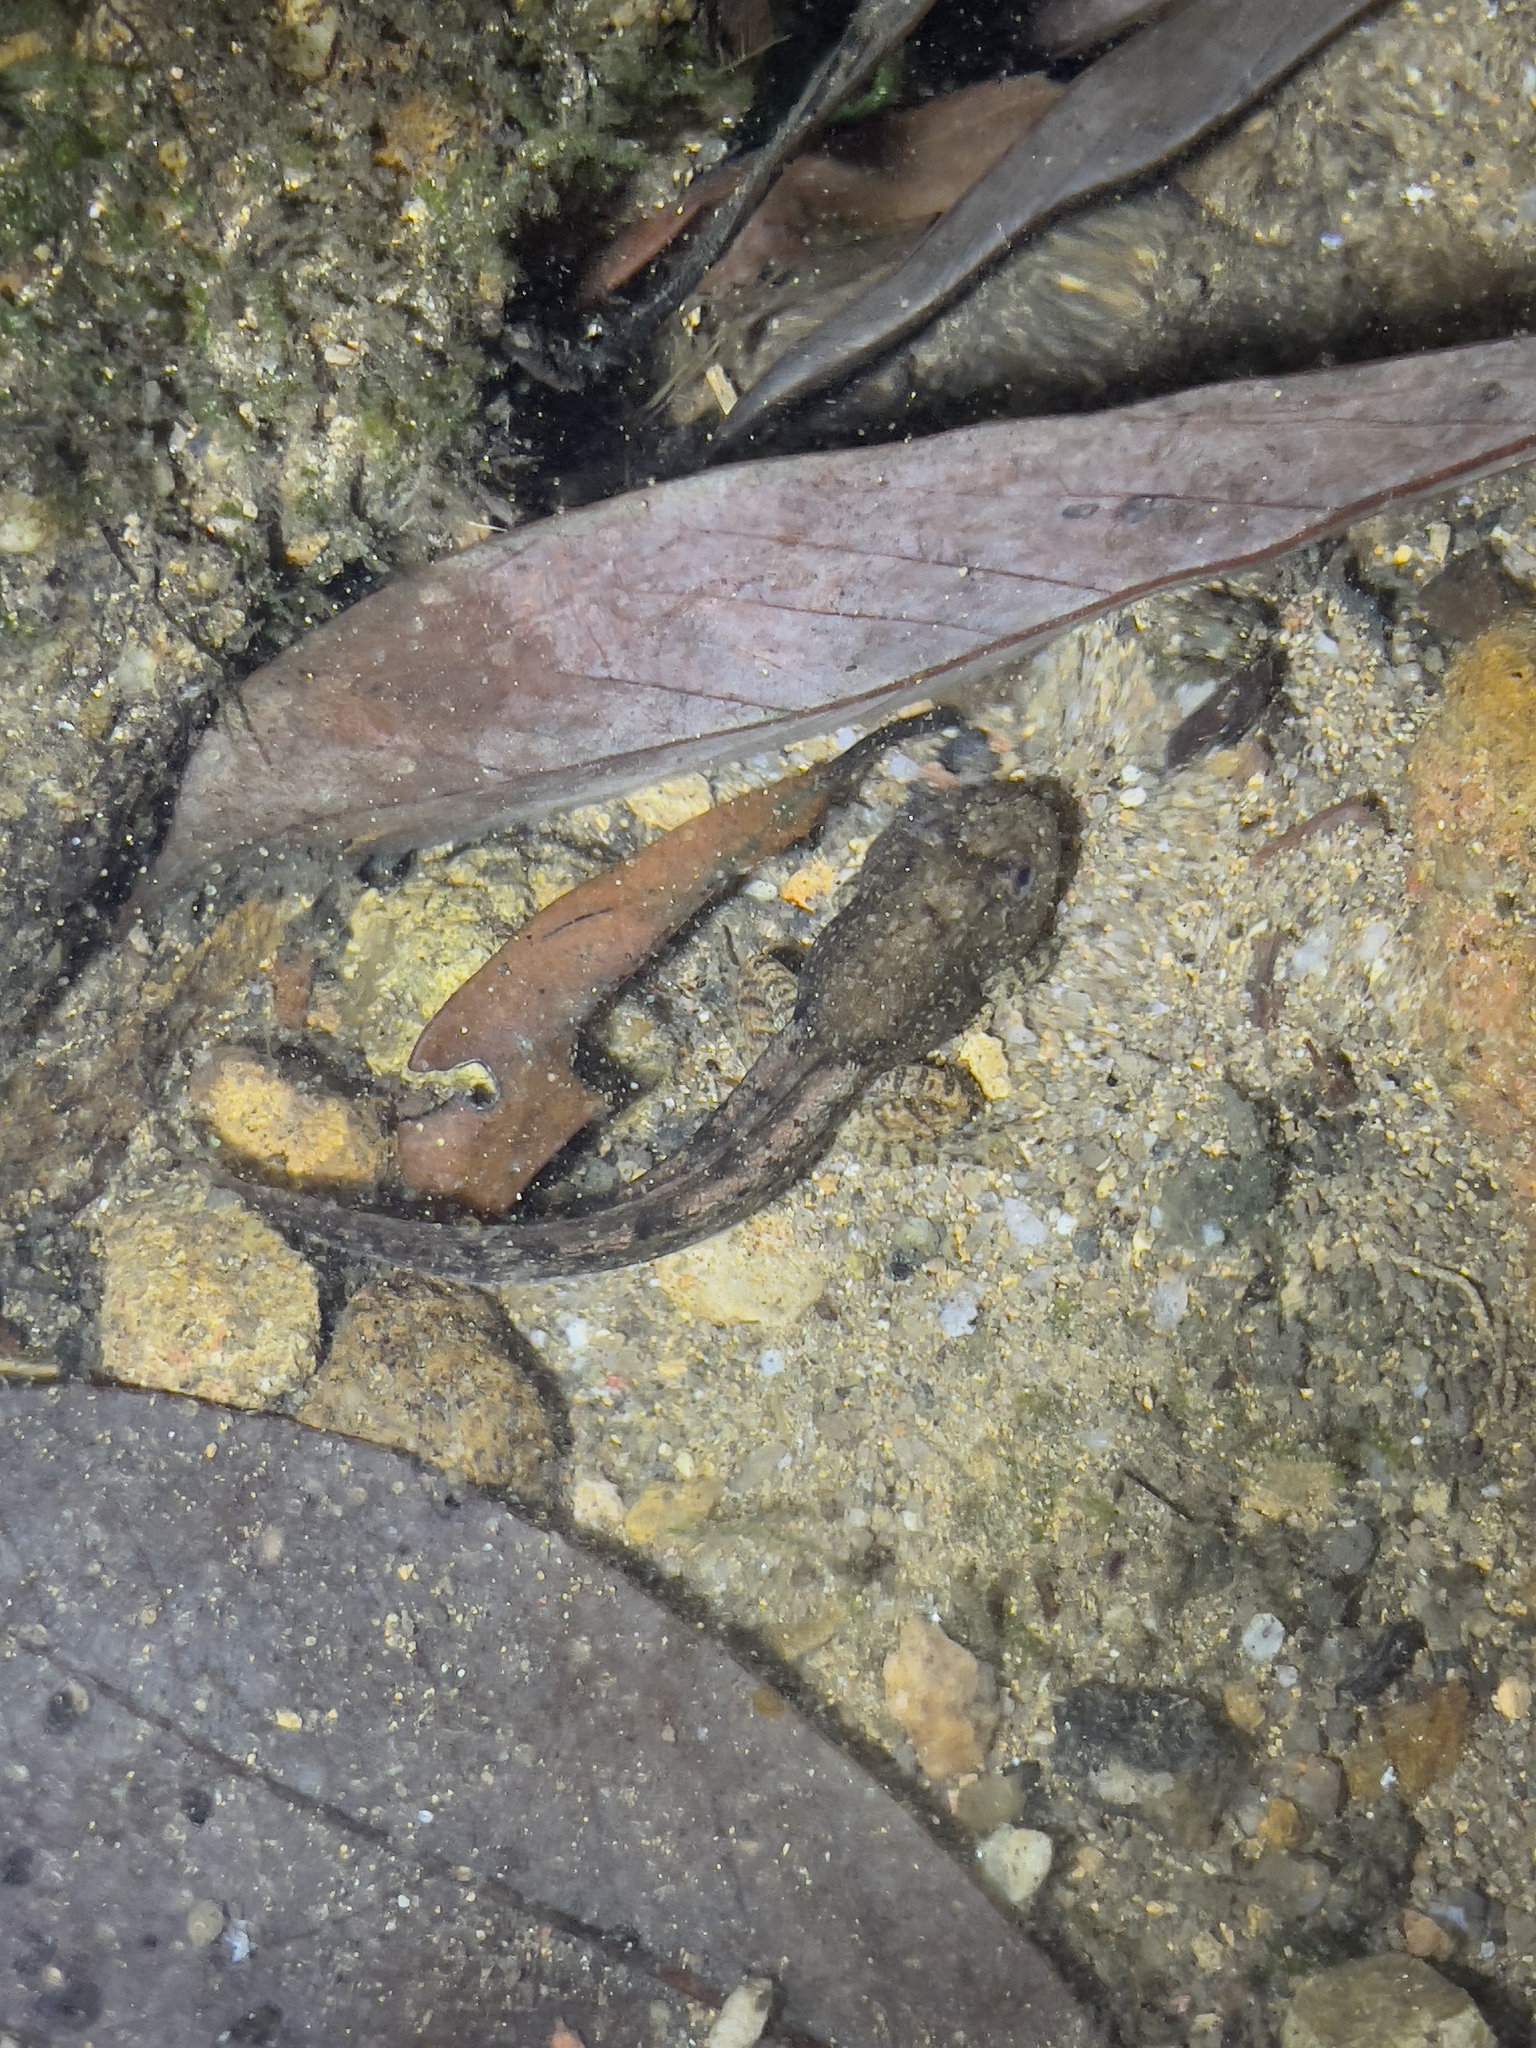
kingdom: Animalia
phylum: Chordata
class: Amphibia
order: Anura
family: Dicroglossidae
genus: Quasipaa
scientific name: Quasipaa exilispinosa
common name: Hong kong paa frog
